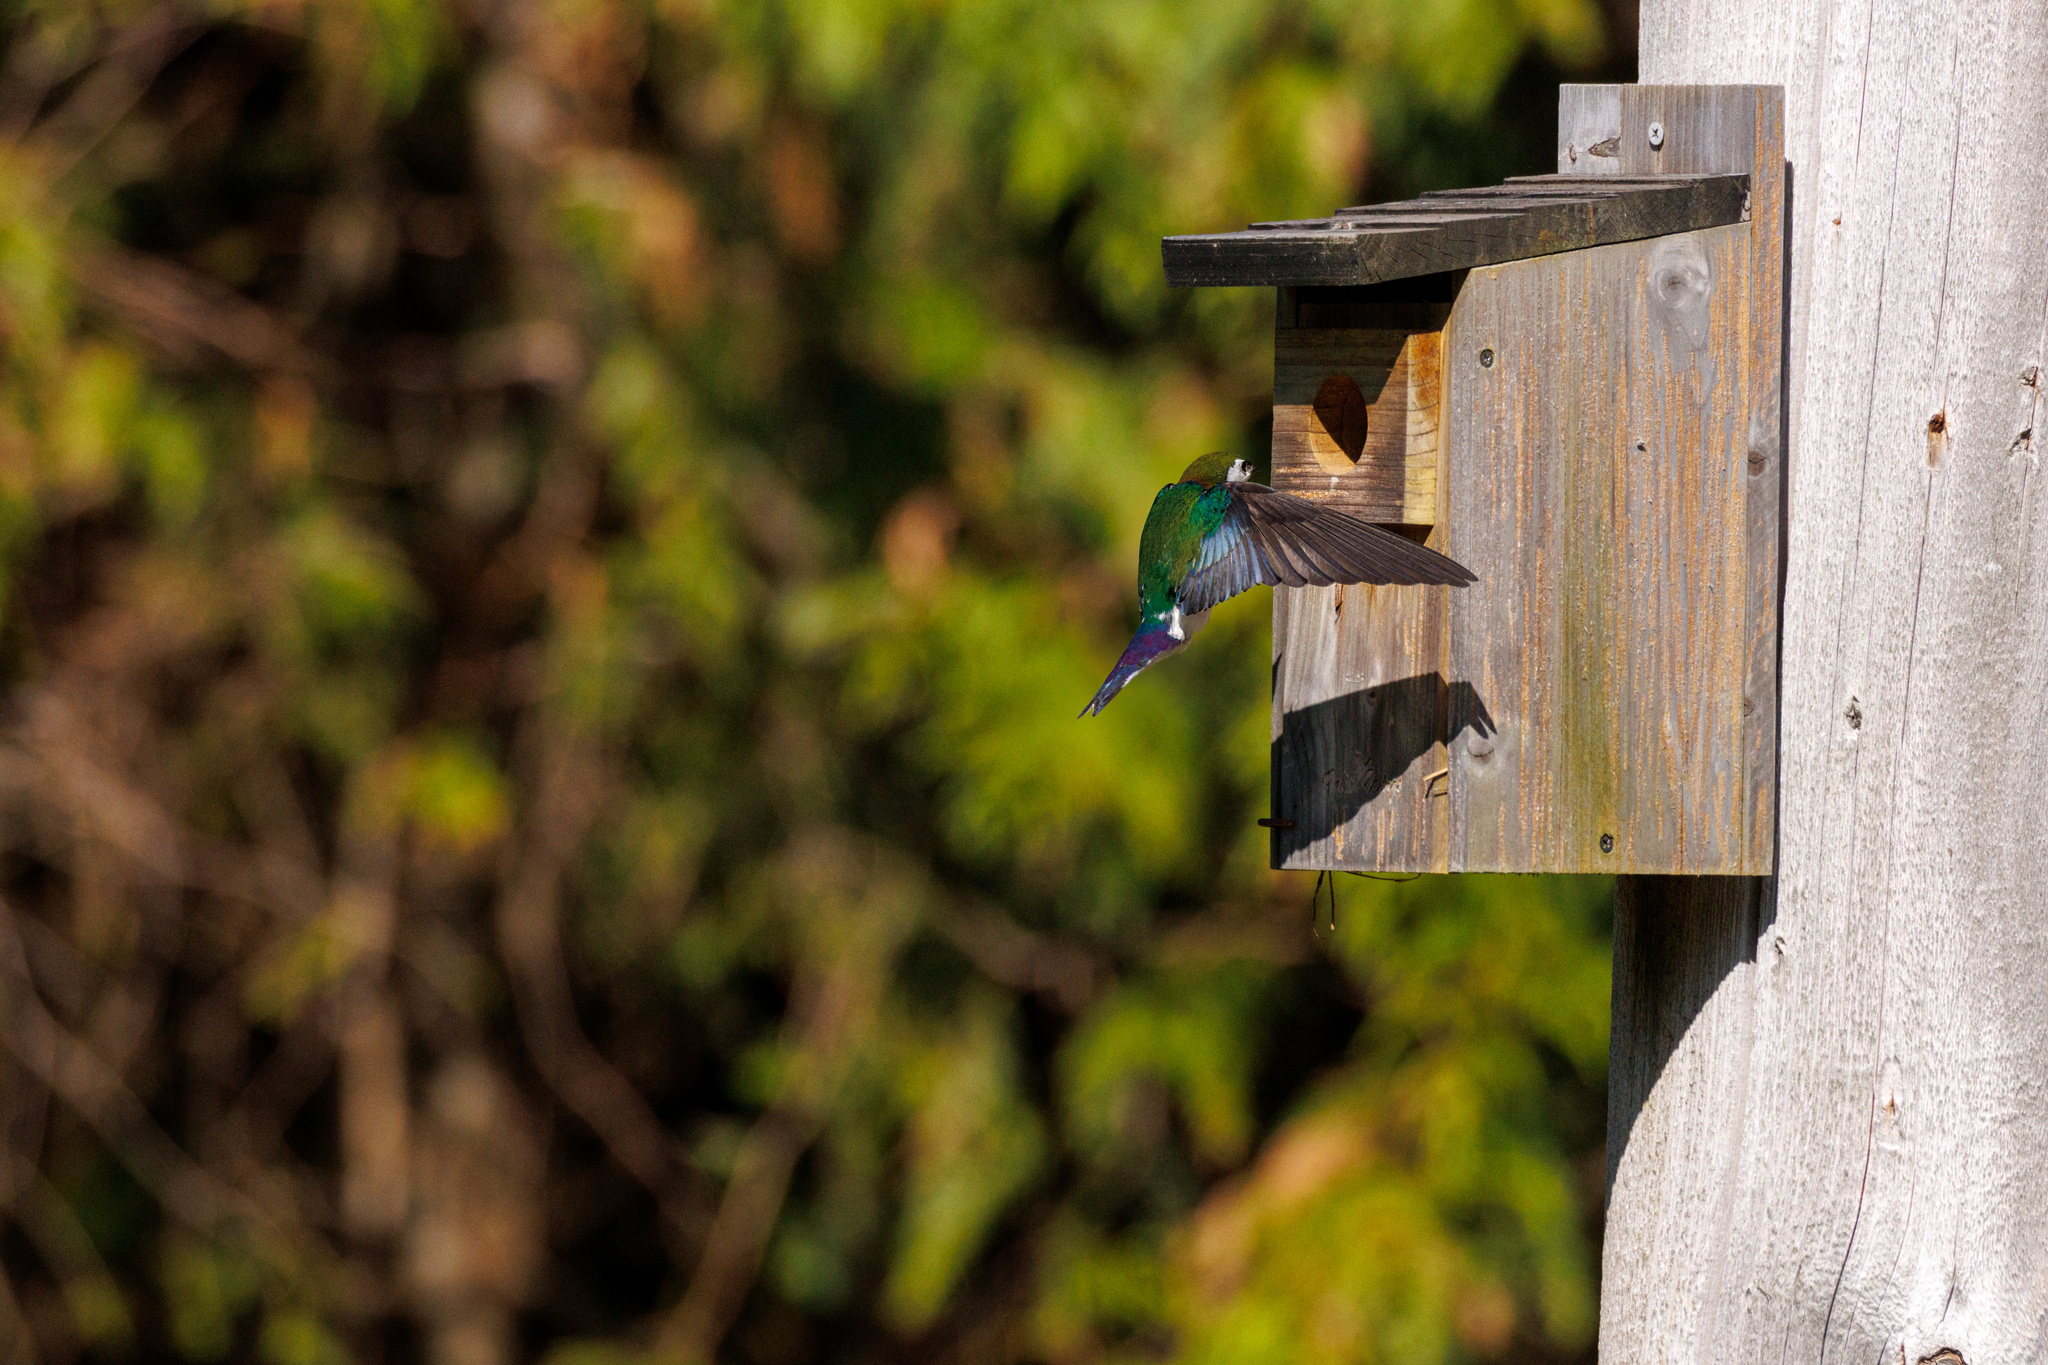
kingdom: Animalia
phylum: Chordata
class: Aves
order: Passeriformes
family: Hirundinidae
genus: Tachycineta
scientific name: Tachycineta thalassina
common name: Violet-green swallow
